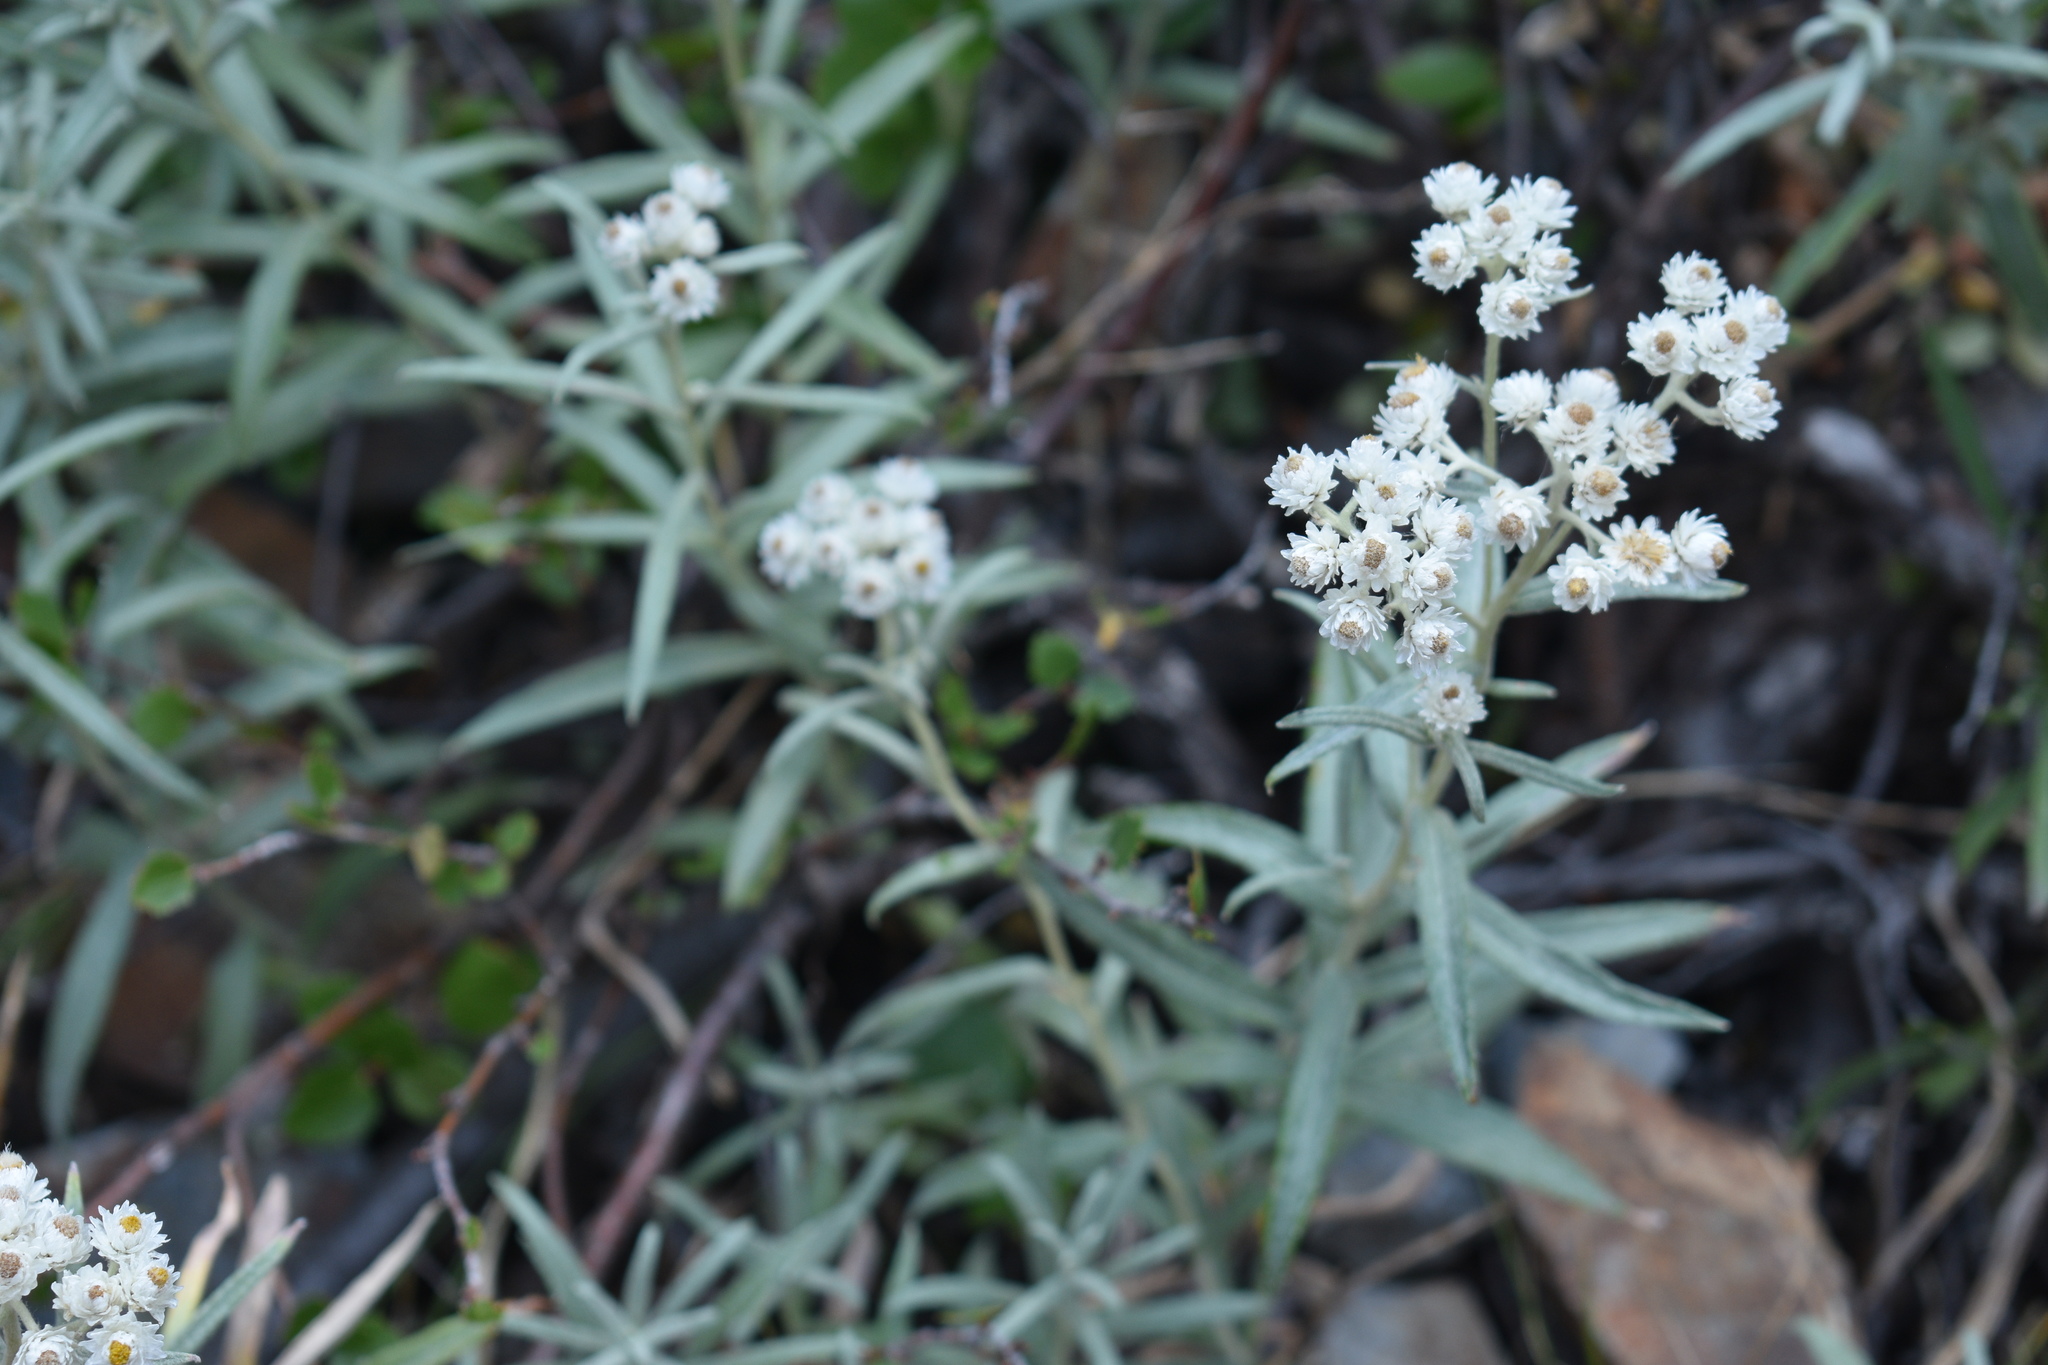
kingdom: Plantae
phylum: Tracheophyta
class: Magnoliopsida
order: Asterales
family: Asteraceae
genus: Anaphalis
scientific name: Anaphalis margaritacea
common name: Pearly everlasting
